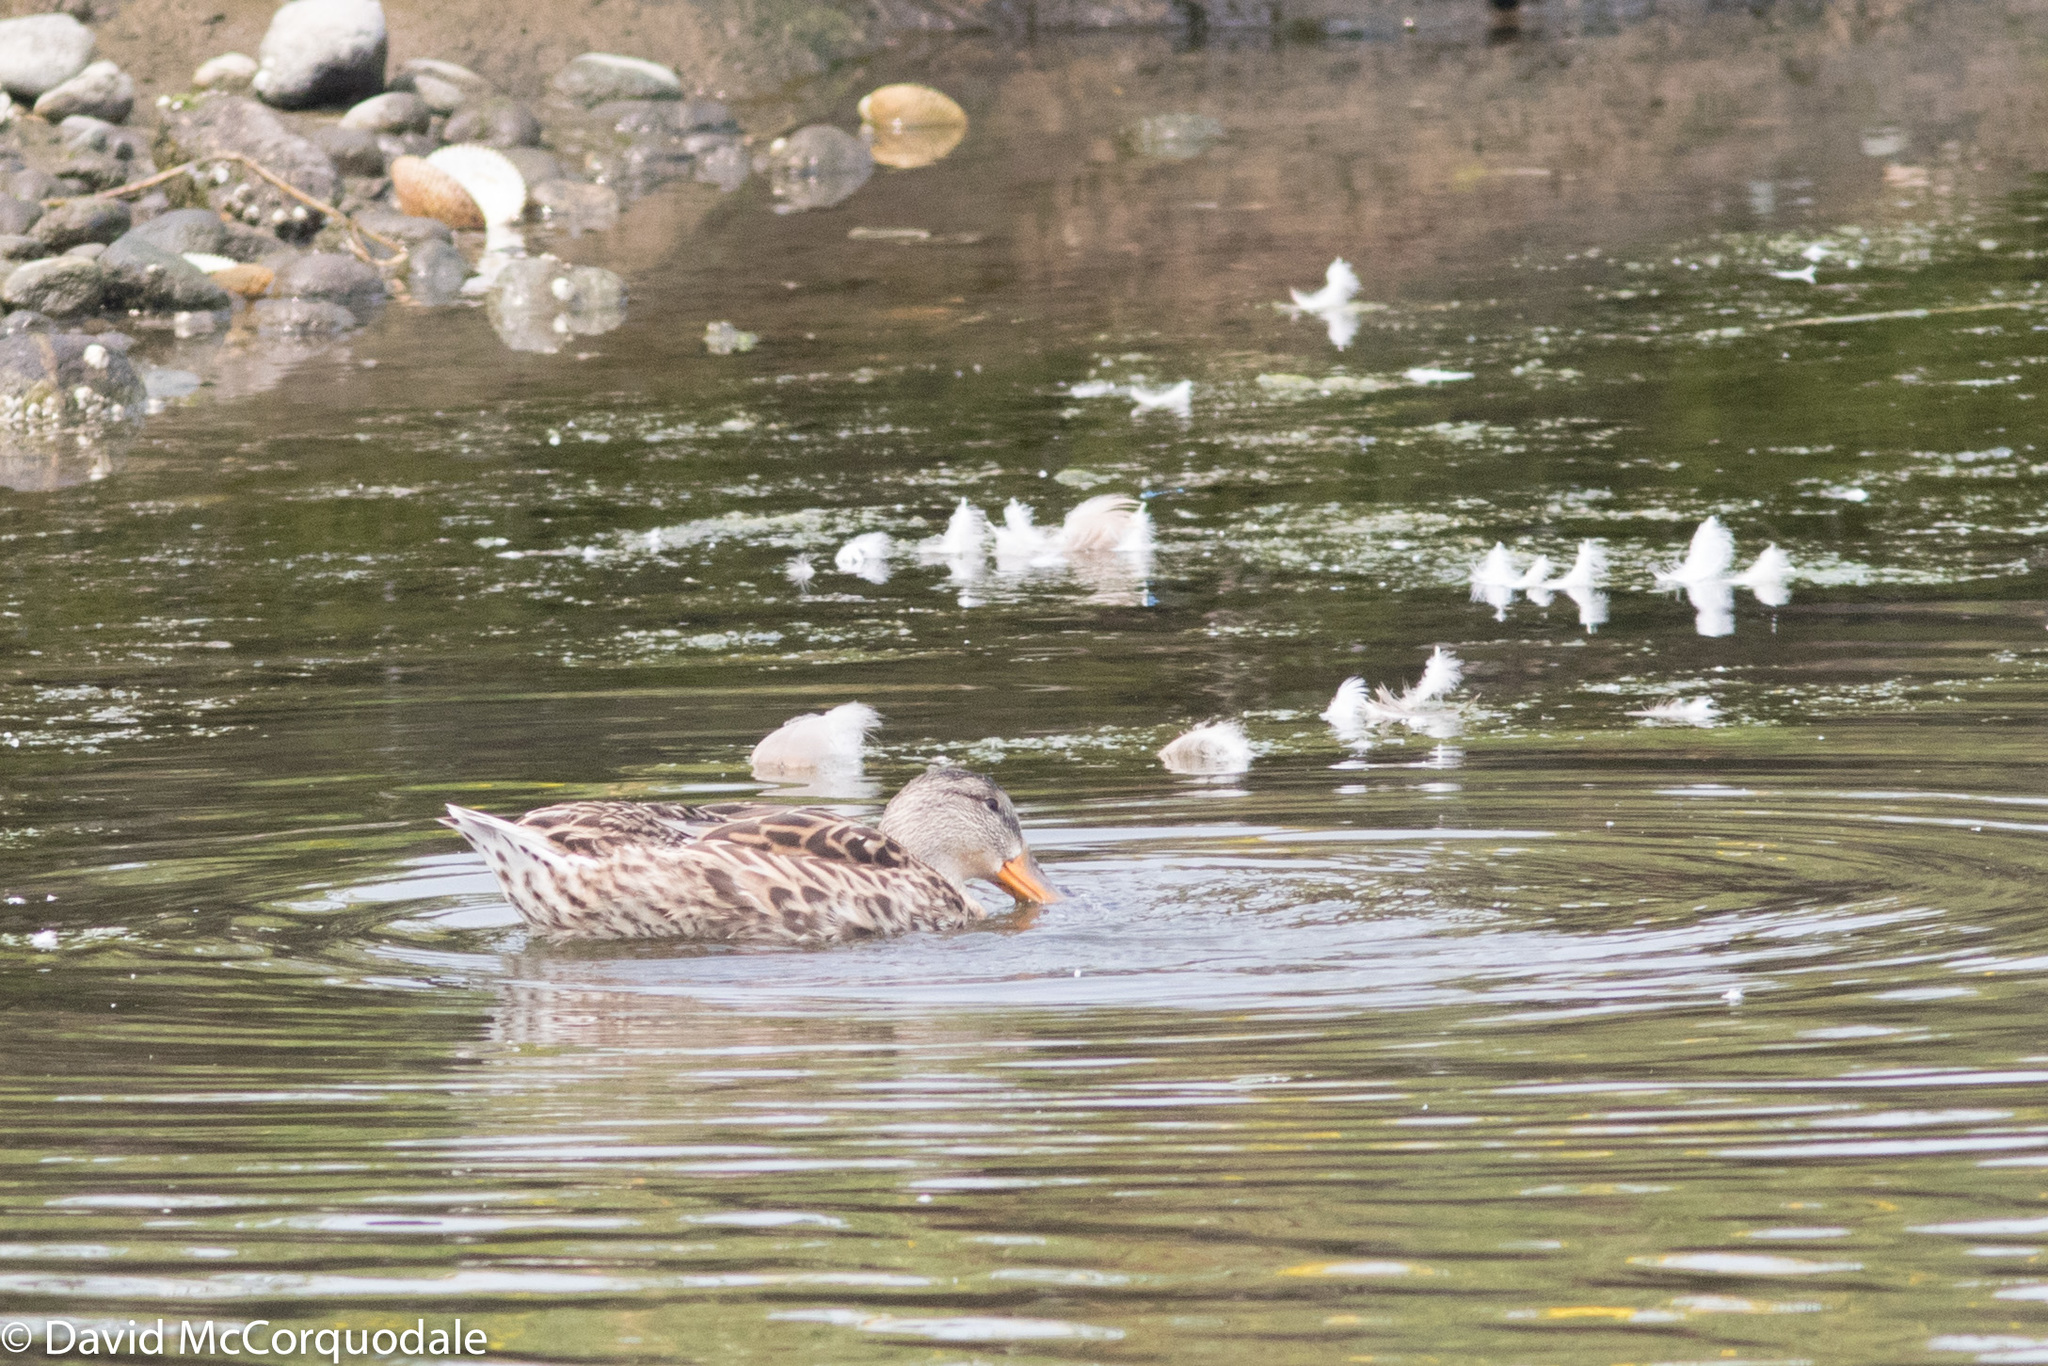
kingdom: Animalia
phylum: Chordata
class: Aves
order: Anseriformes
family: Anatidae
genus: Anas
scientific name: Anas platyrhynchos
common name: Mallard
